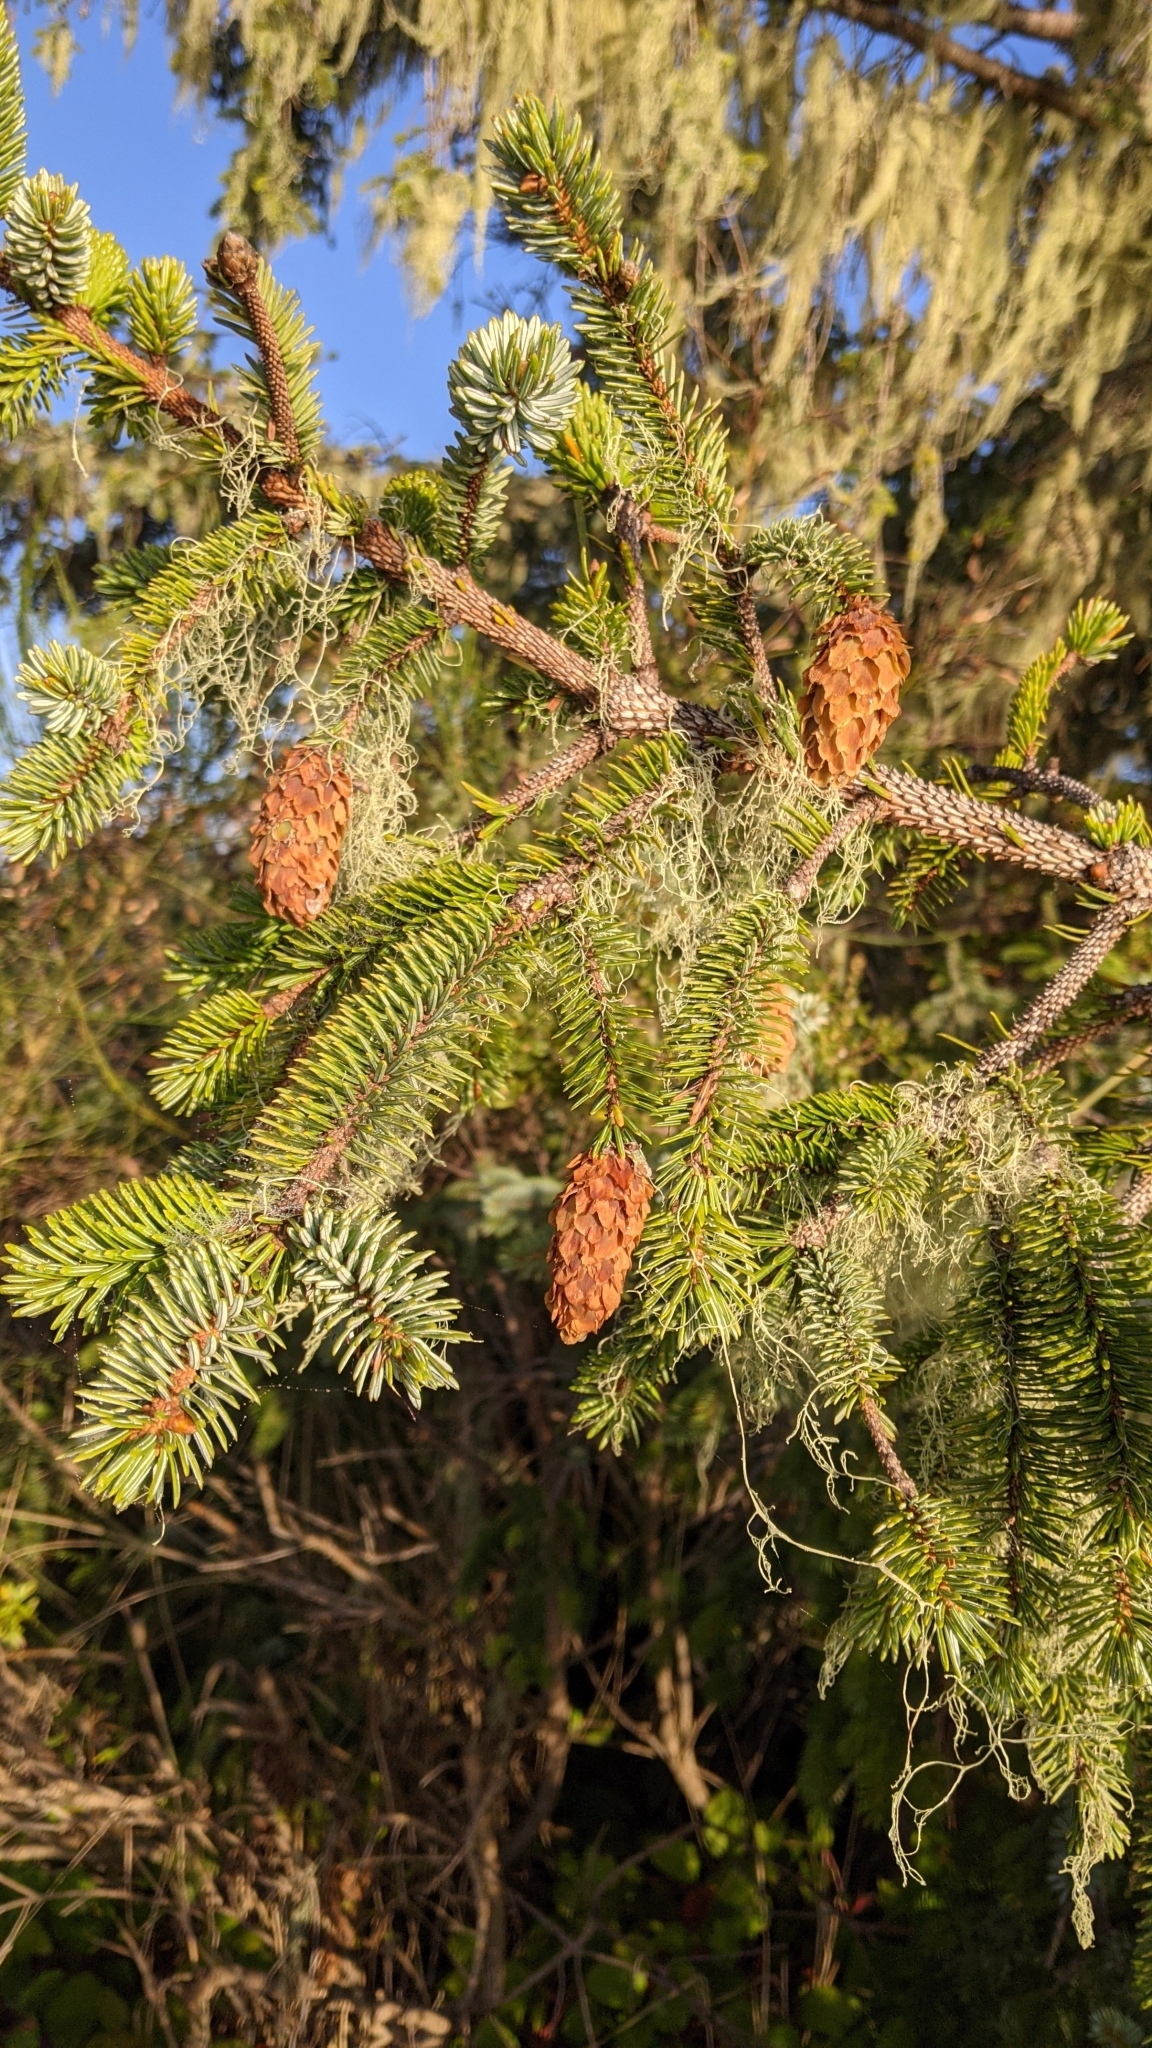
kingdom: Plantae
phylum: Tracheophyta
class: Pinopsida
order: Pinales
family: Pinaceae
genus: Picea
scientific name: Picea sitchensis
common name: Sitka spruce
